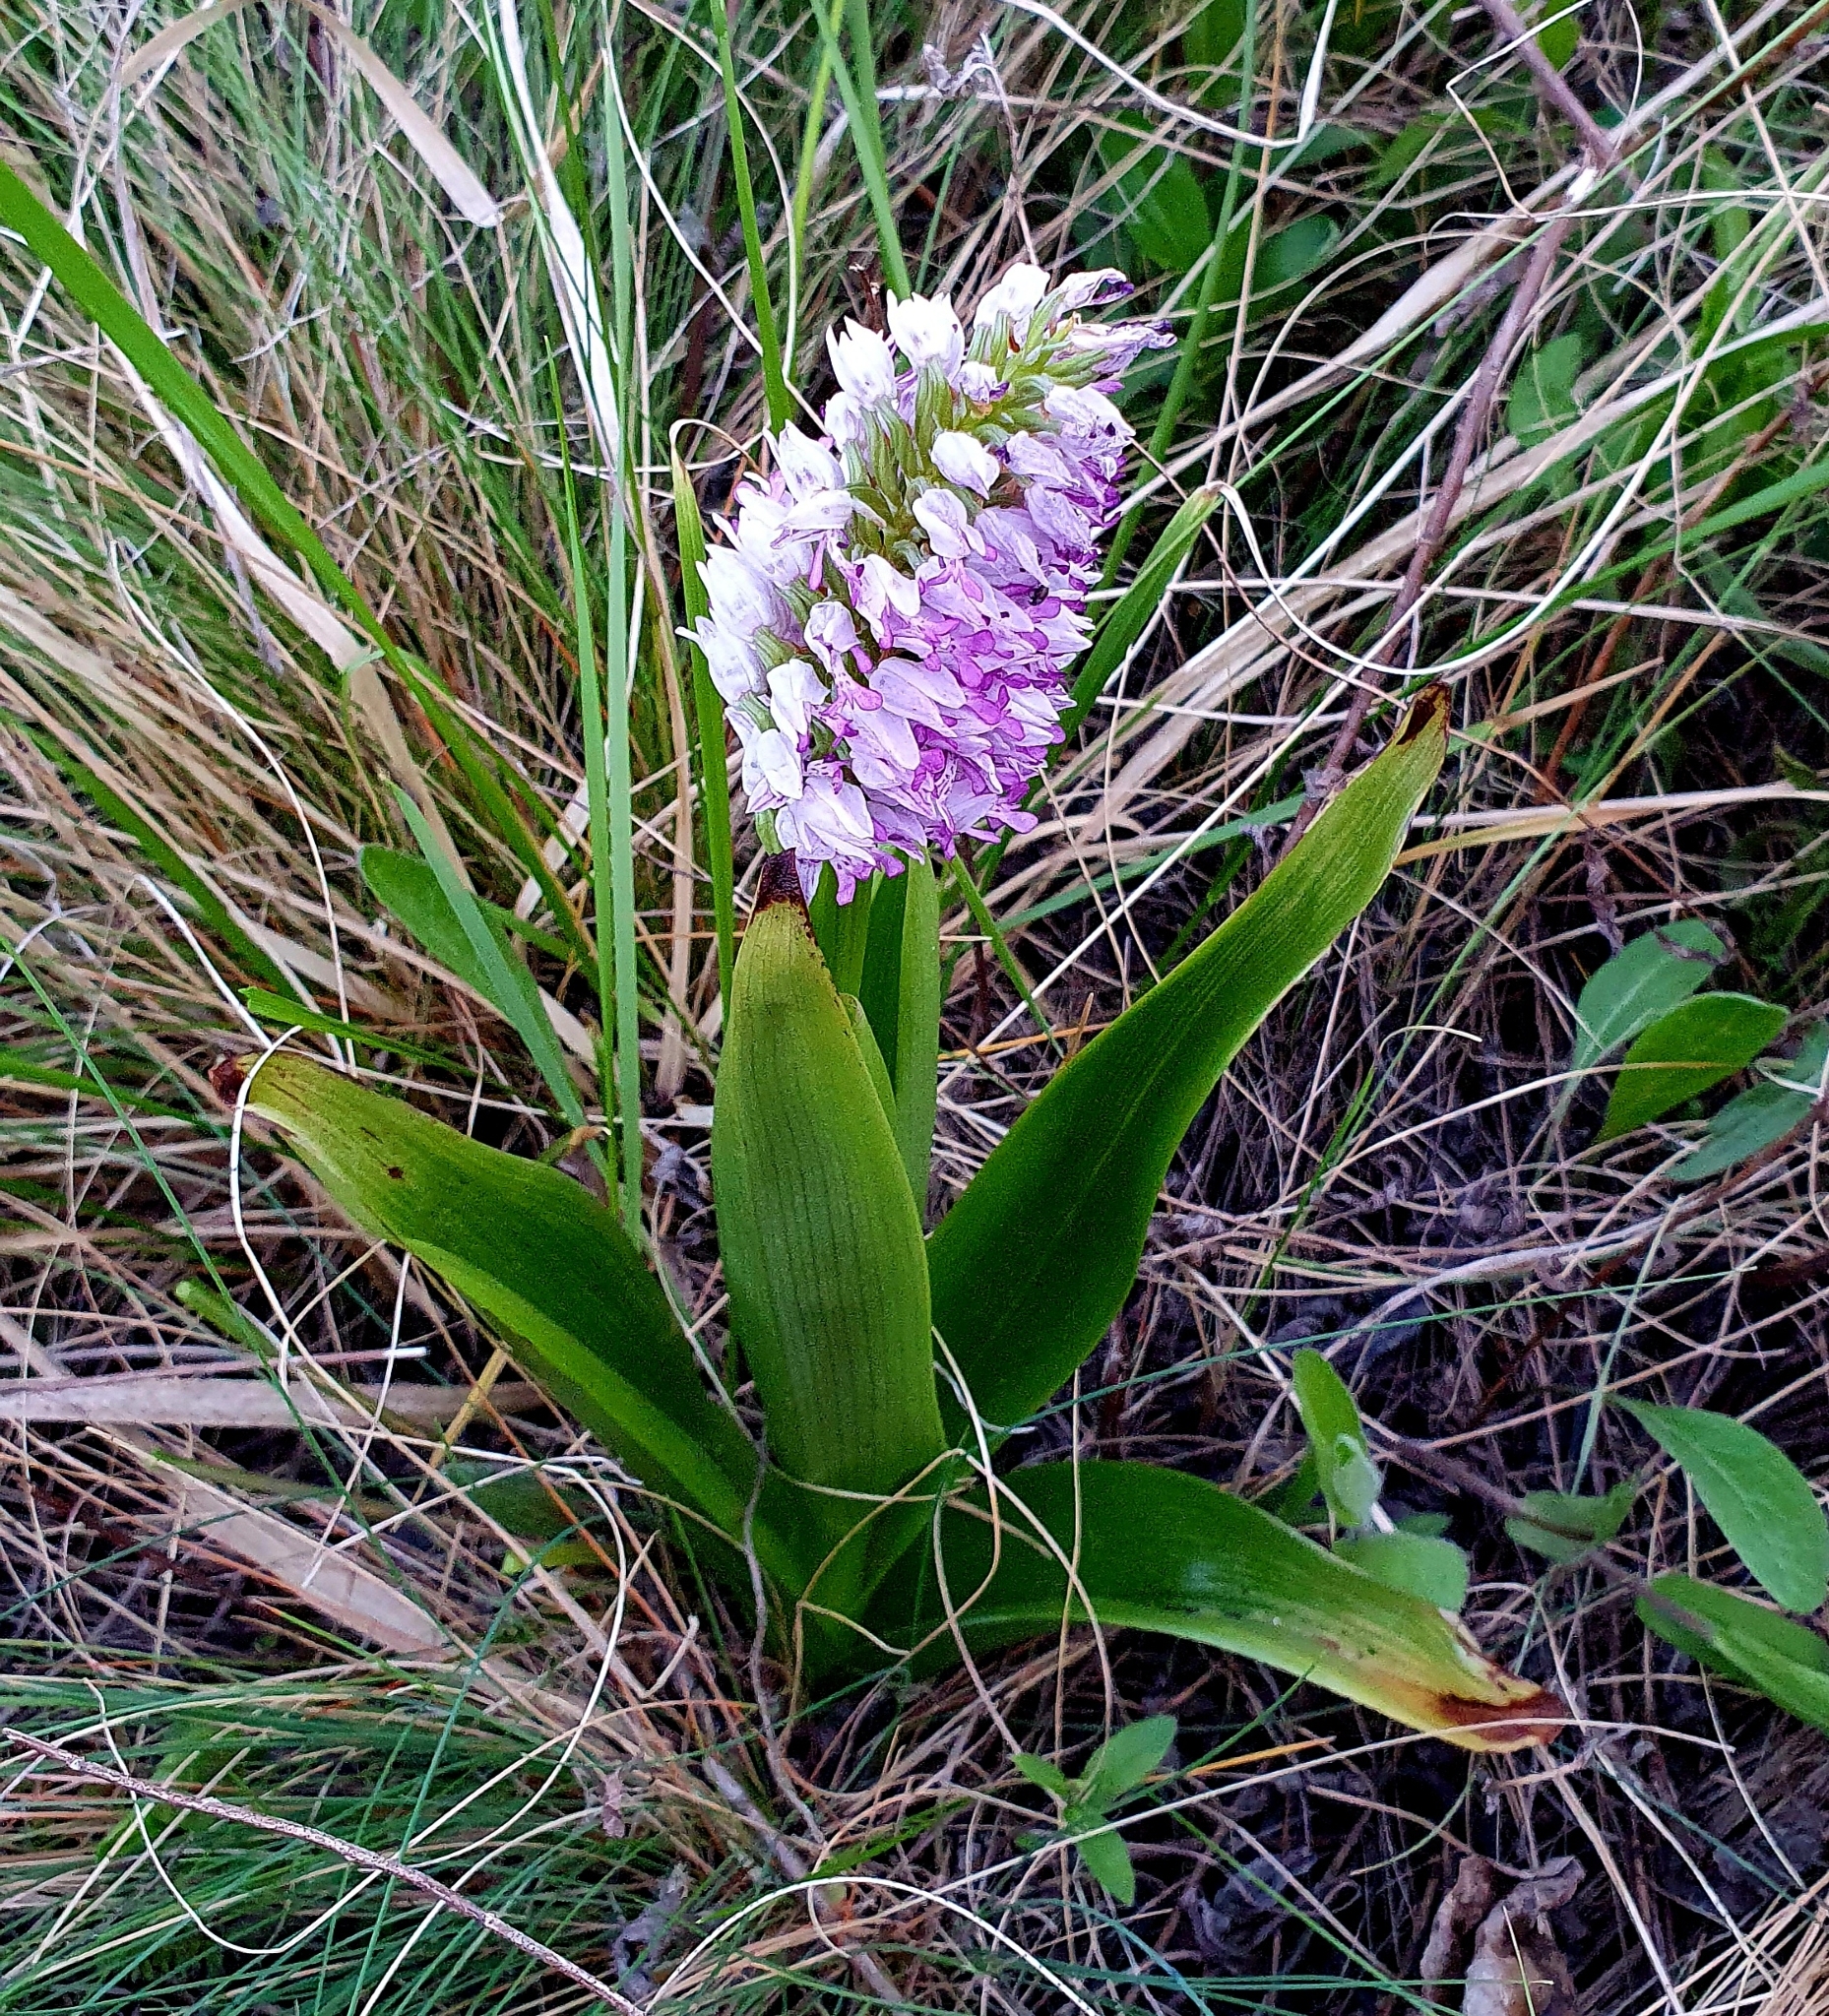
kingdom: Plantae
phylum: Tracheophyta
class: Liliopsida
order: Asparagales
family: Orchidaceae
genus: Orchis
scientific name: Orchis militaris
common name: Military orchid
